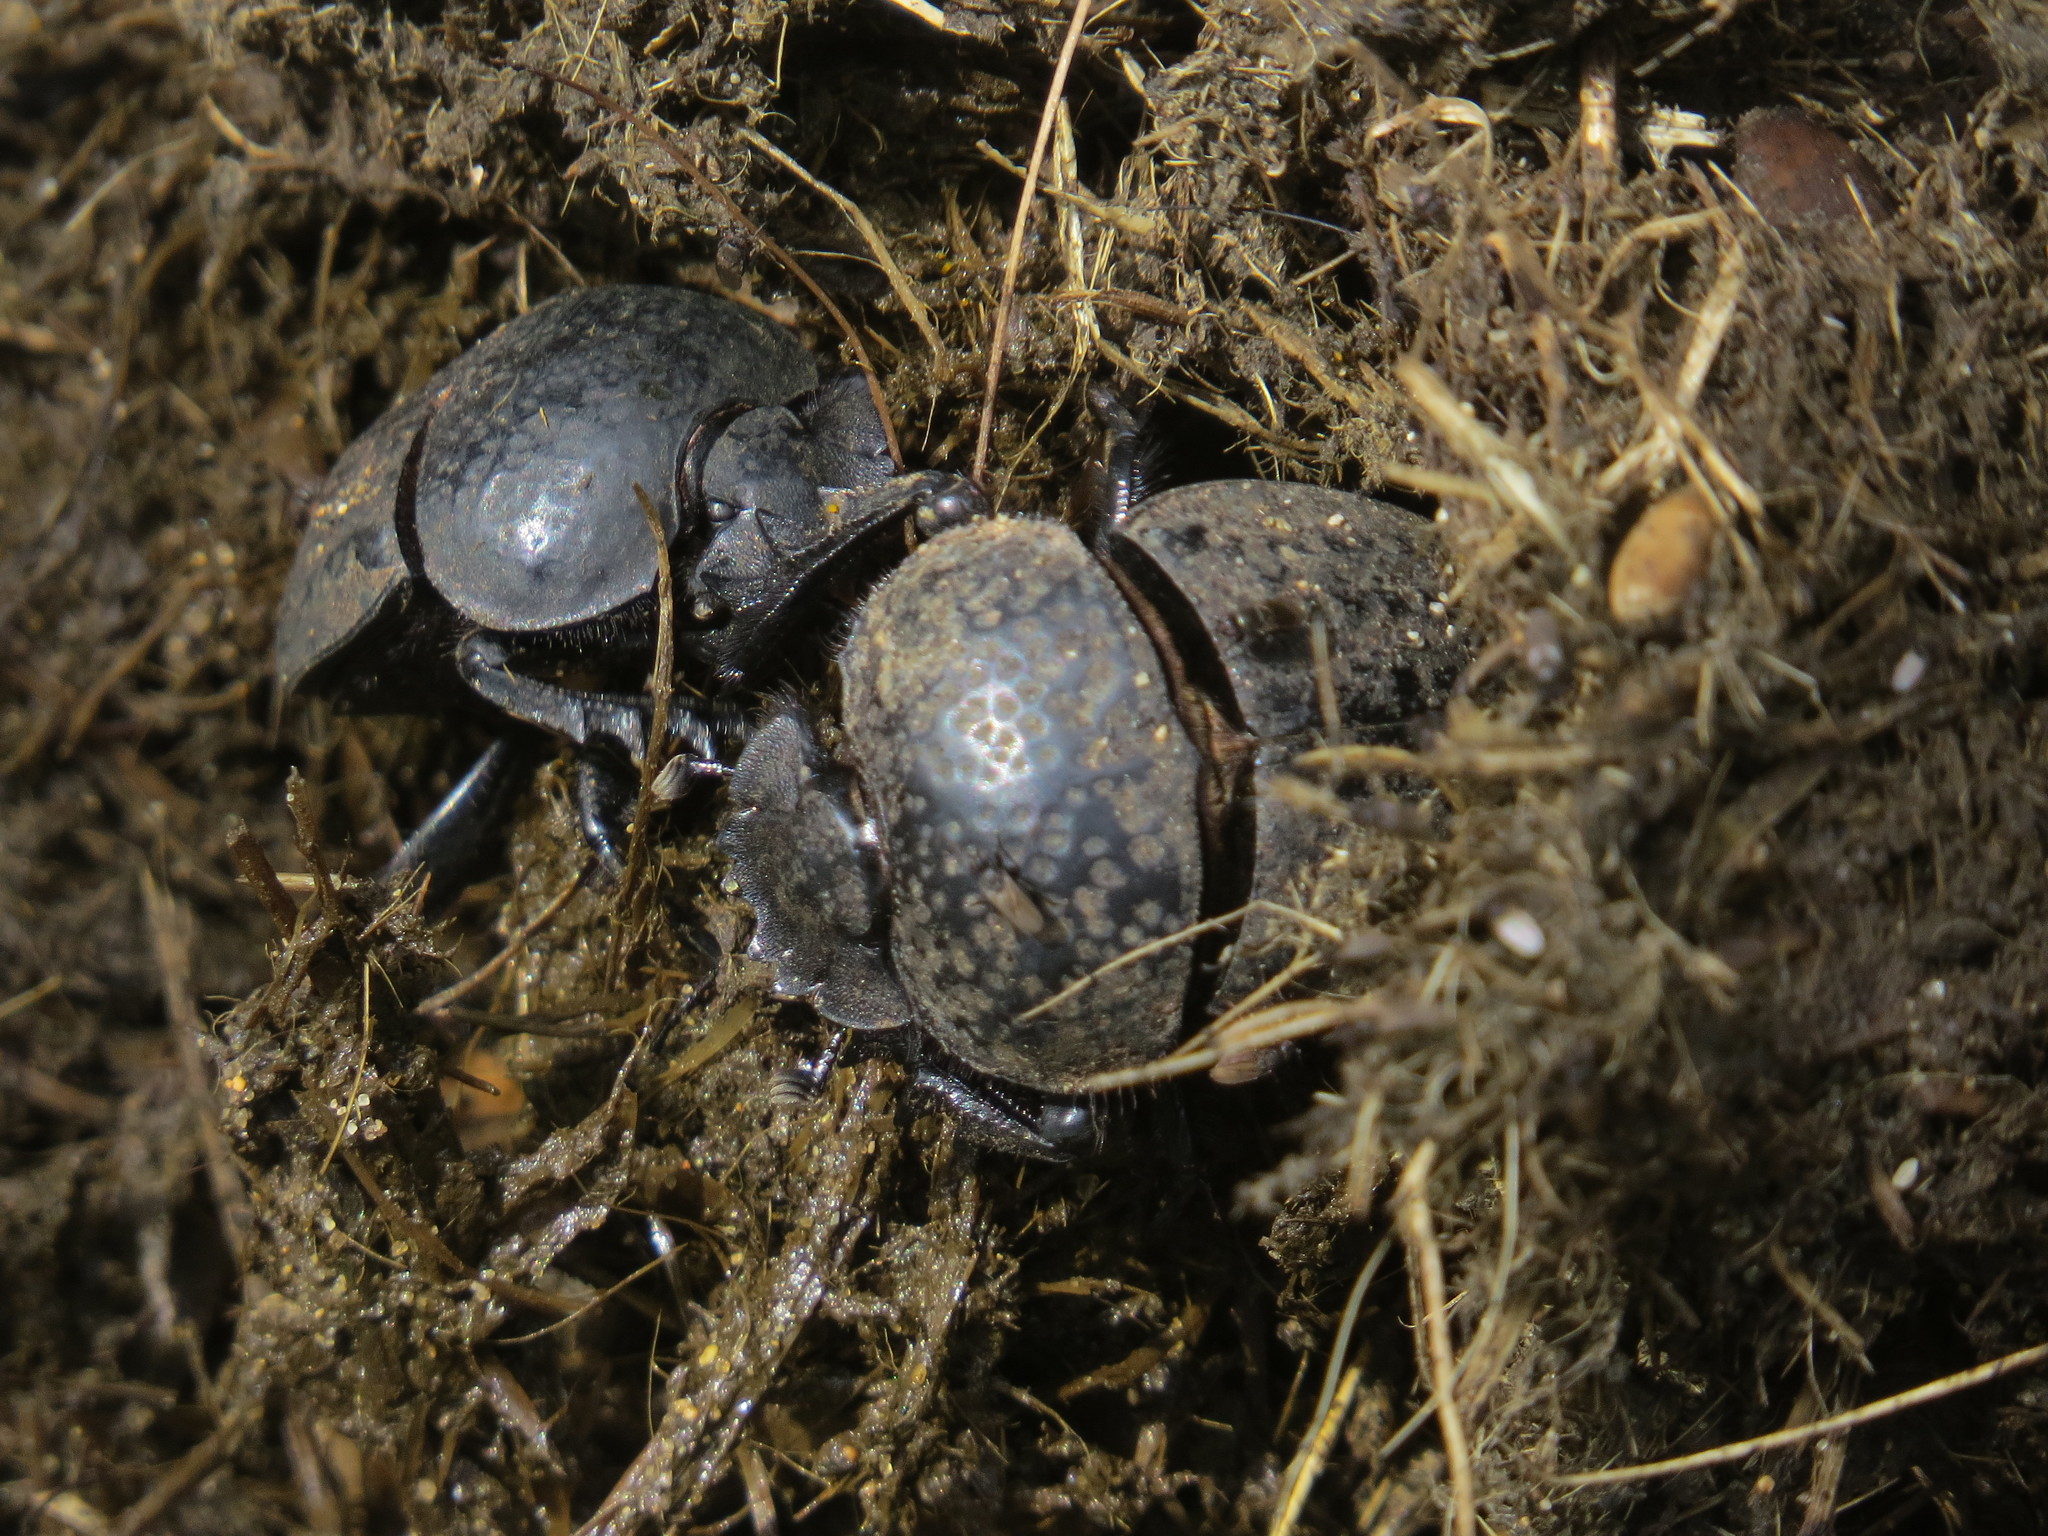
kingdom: Animalia
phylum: Arthropoda
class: Insecta
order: Coleoptera
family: Scarabaeidae
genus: Ateuchetus
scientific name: Ateuchetus cicatricosus
